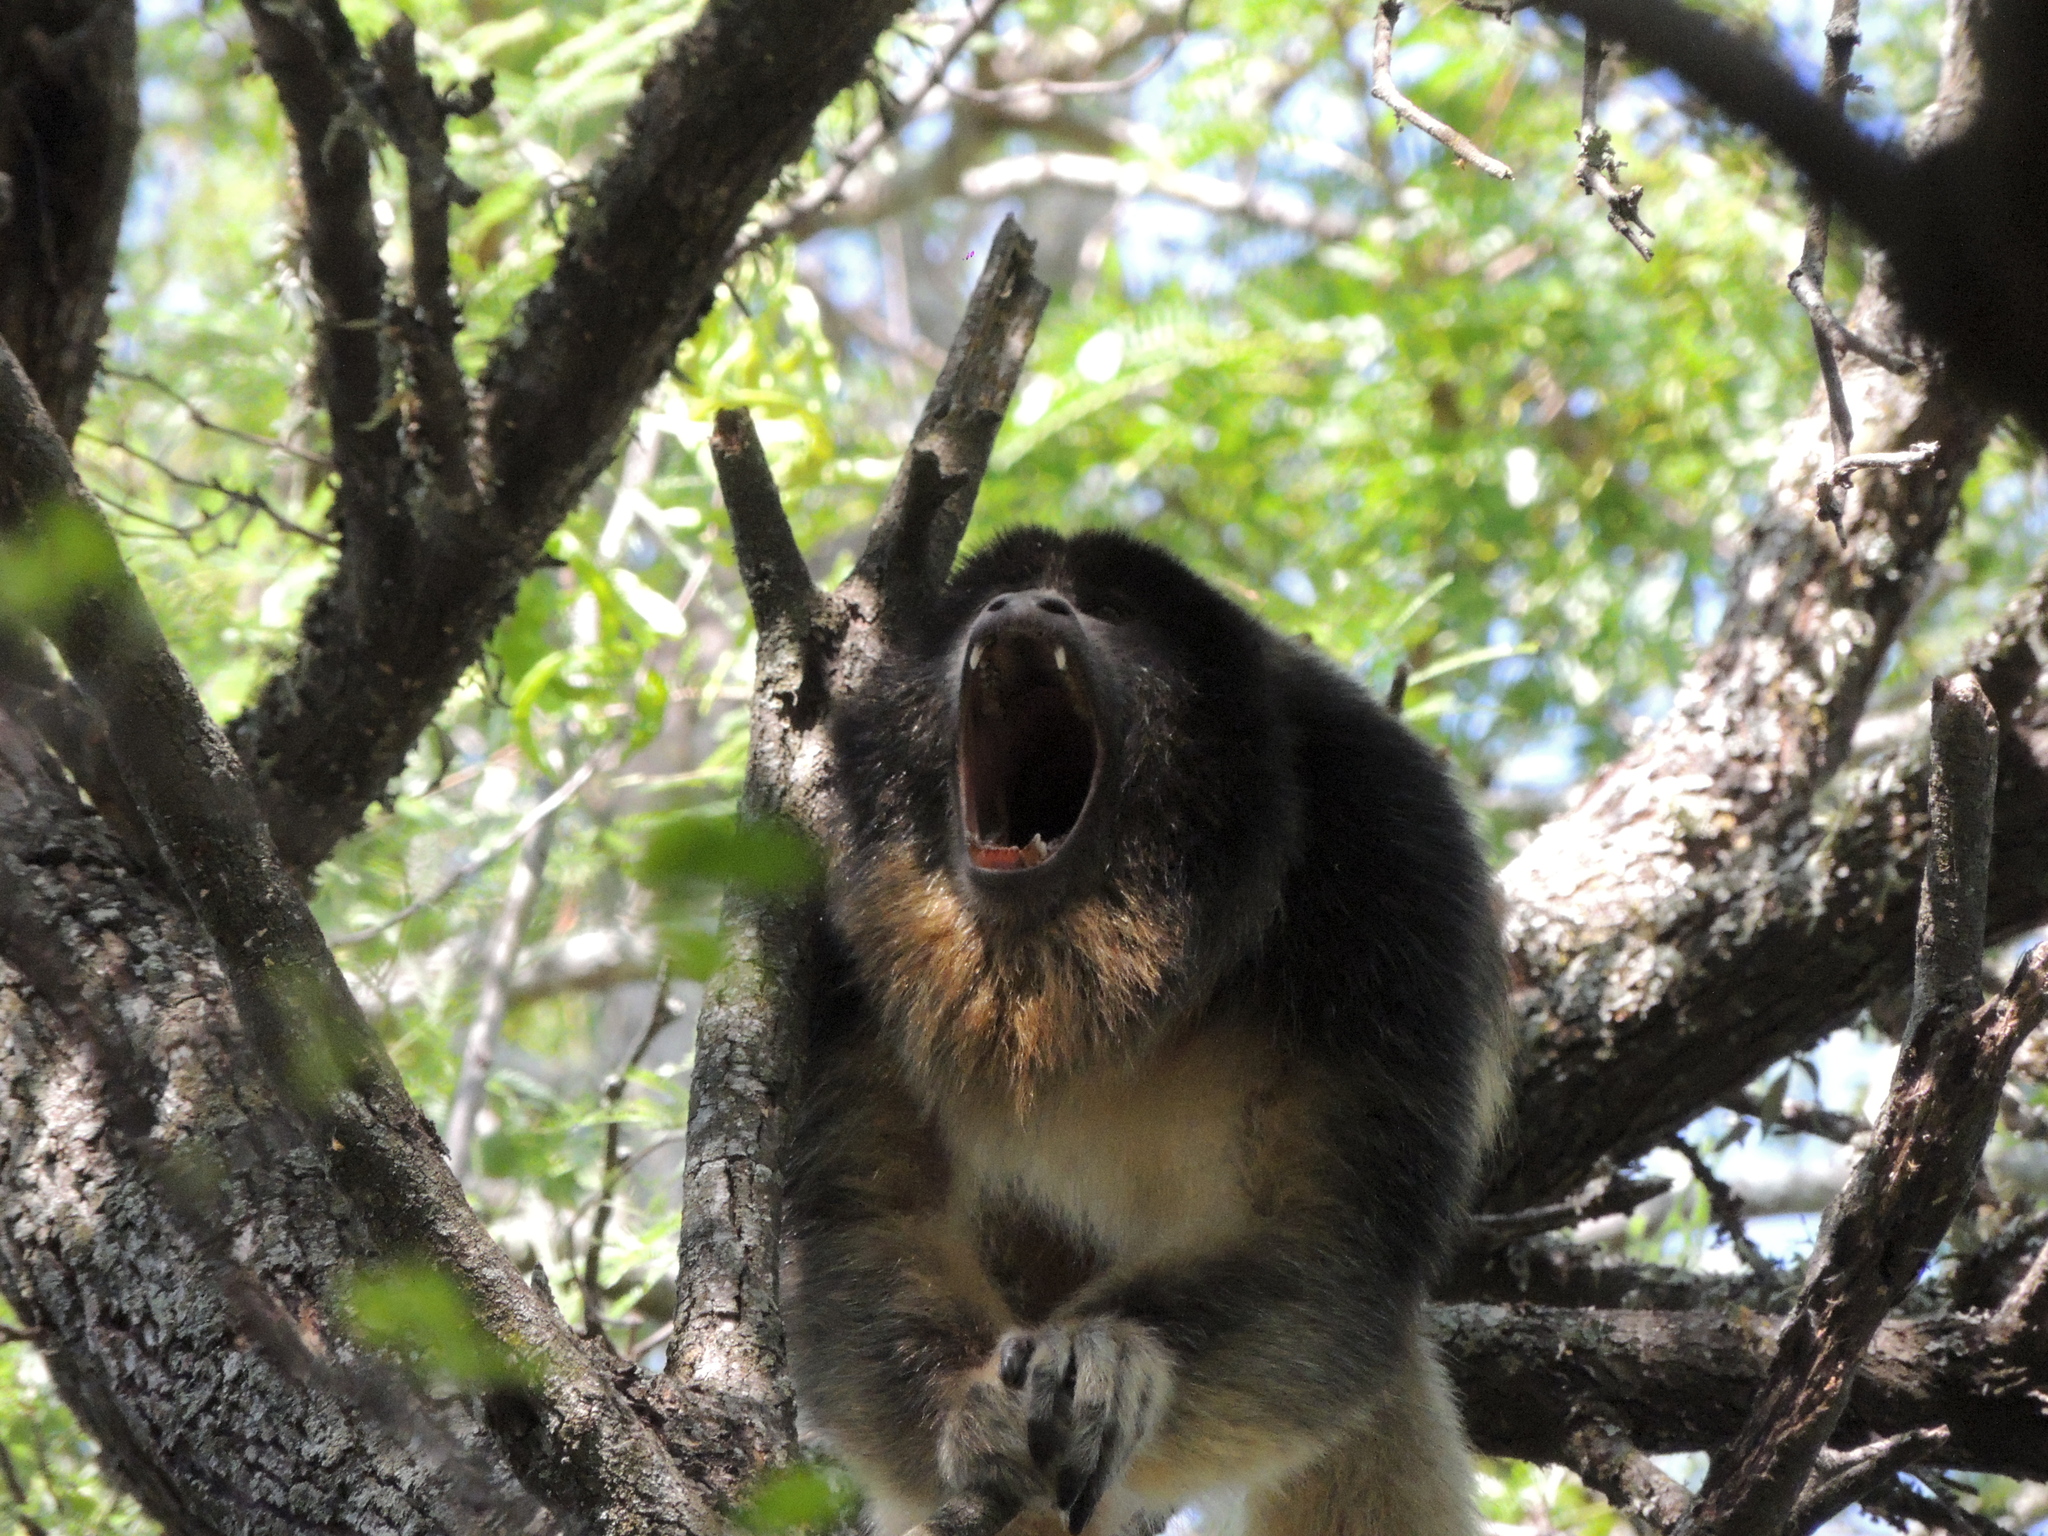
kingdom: Animalia
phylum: Chordata
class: Mammalia
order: Primates
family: Atelidae
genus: Alouatta
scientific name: Alouatta caraya
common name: Black howler
